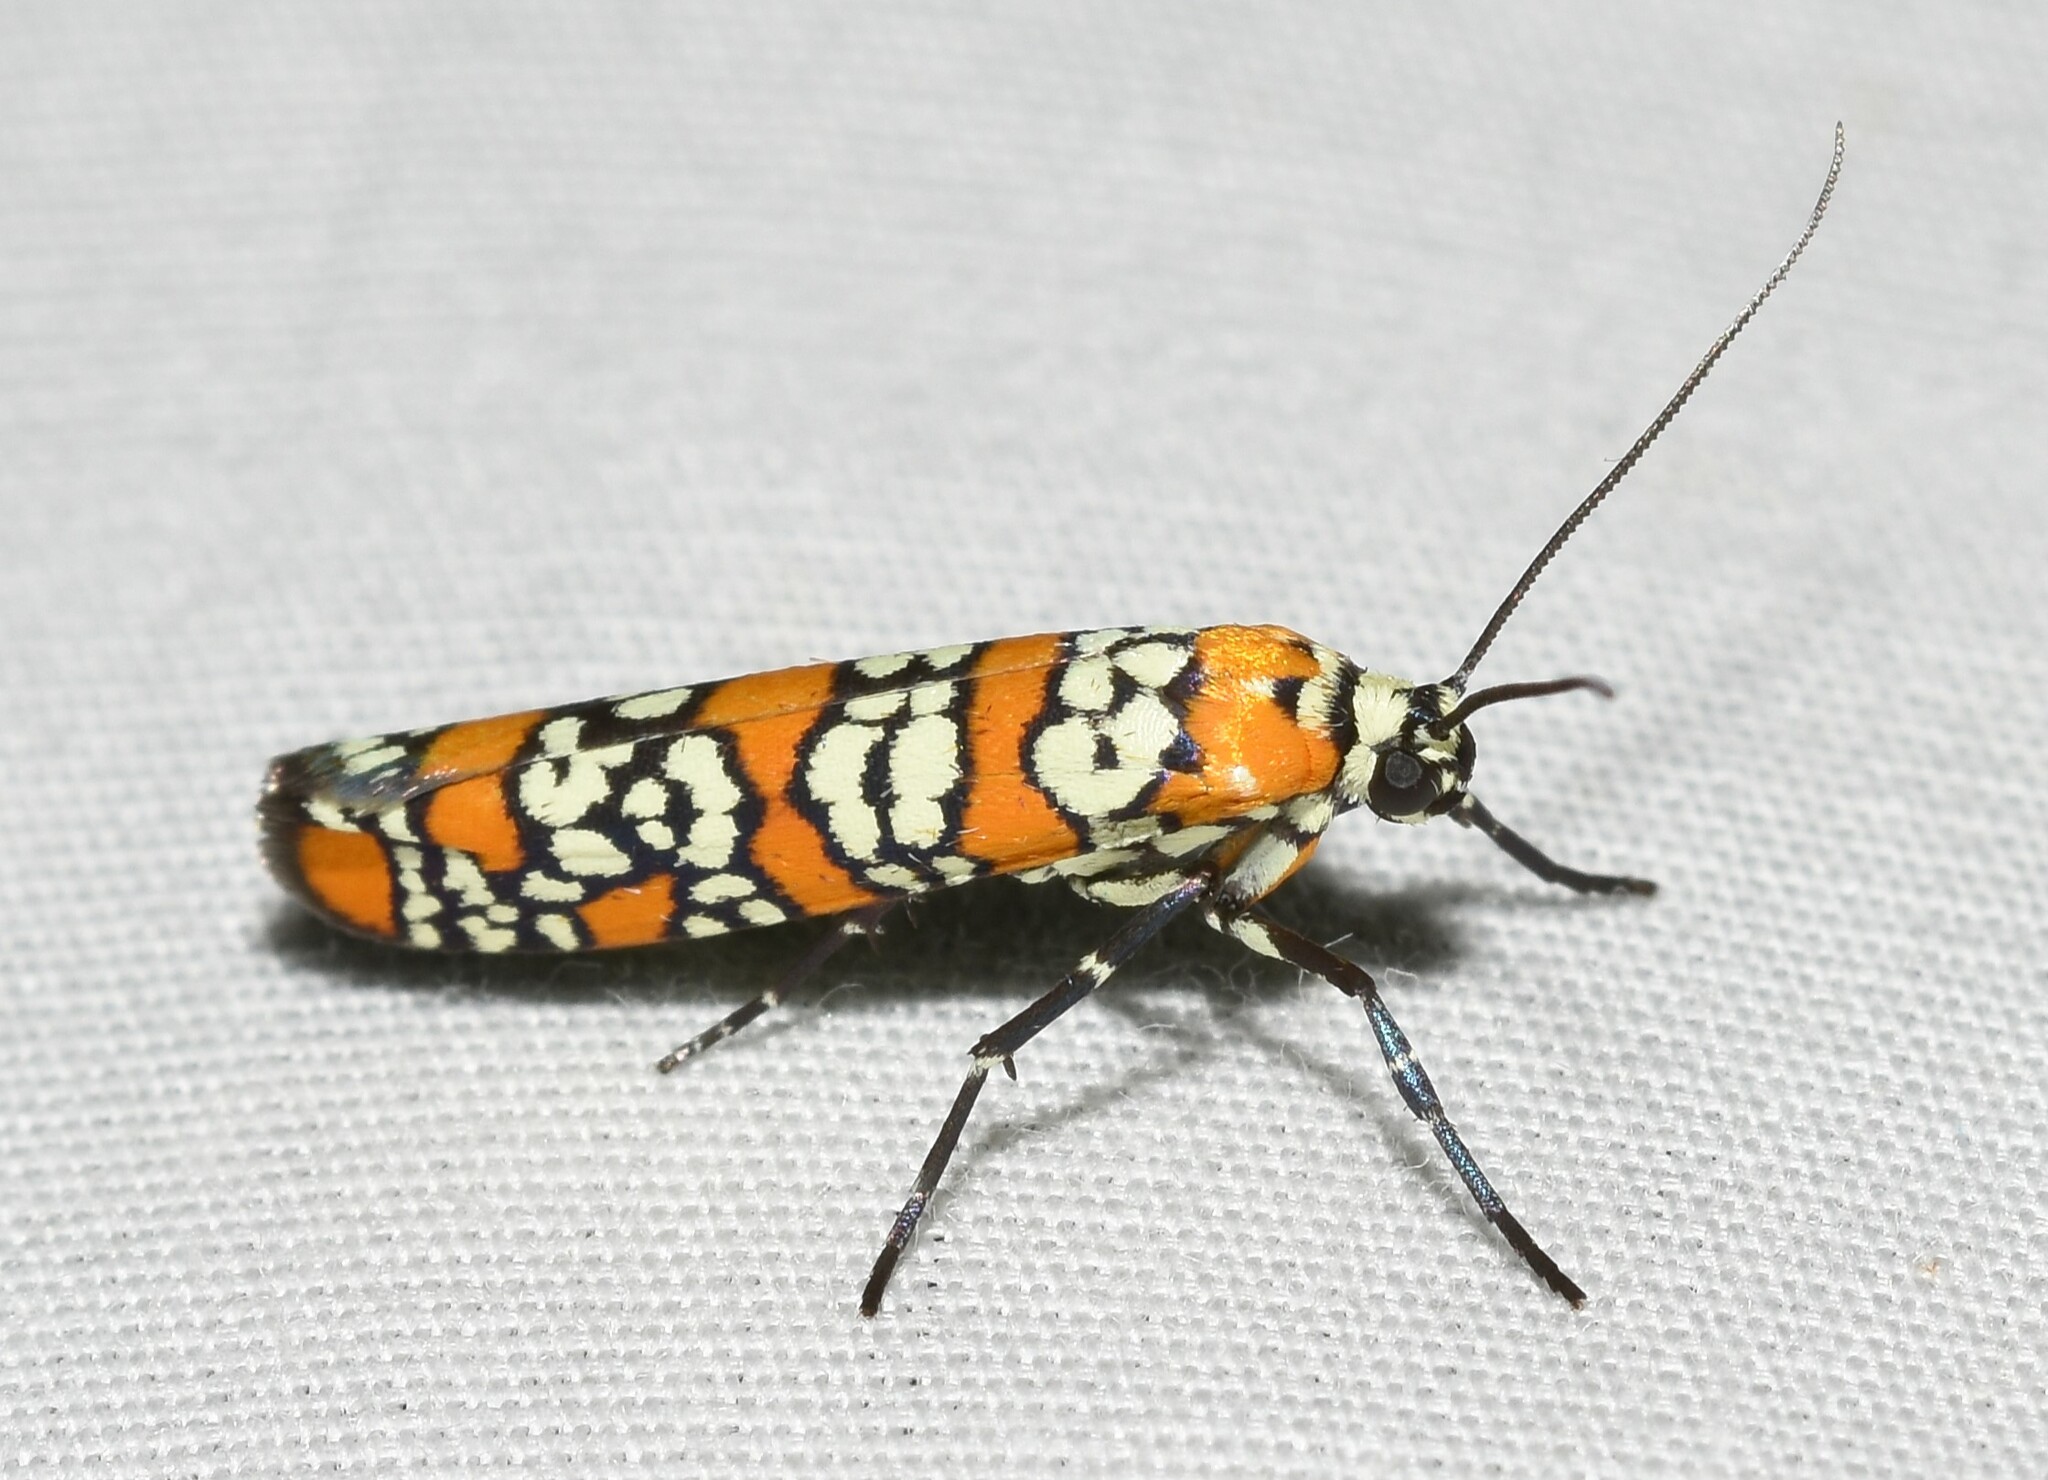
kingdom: Animalia
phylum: Arthropoda
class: Insecta
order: Lepidoptera
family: Attevidae
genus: Atteva
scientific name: Atteva punctella
